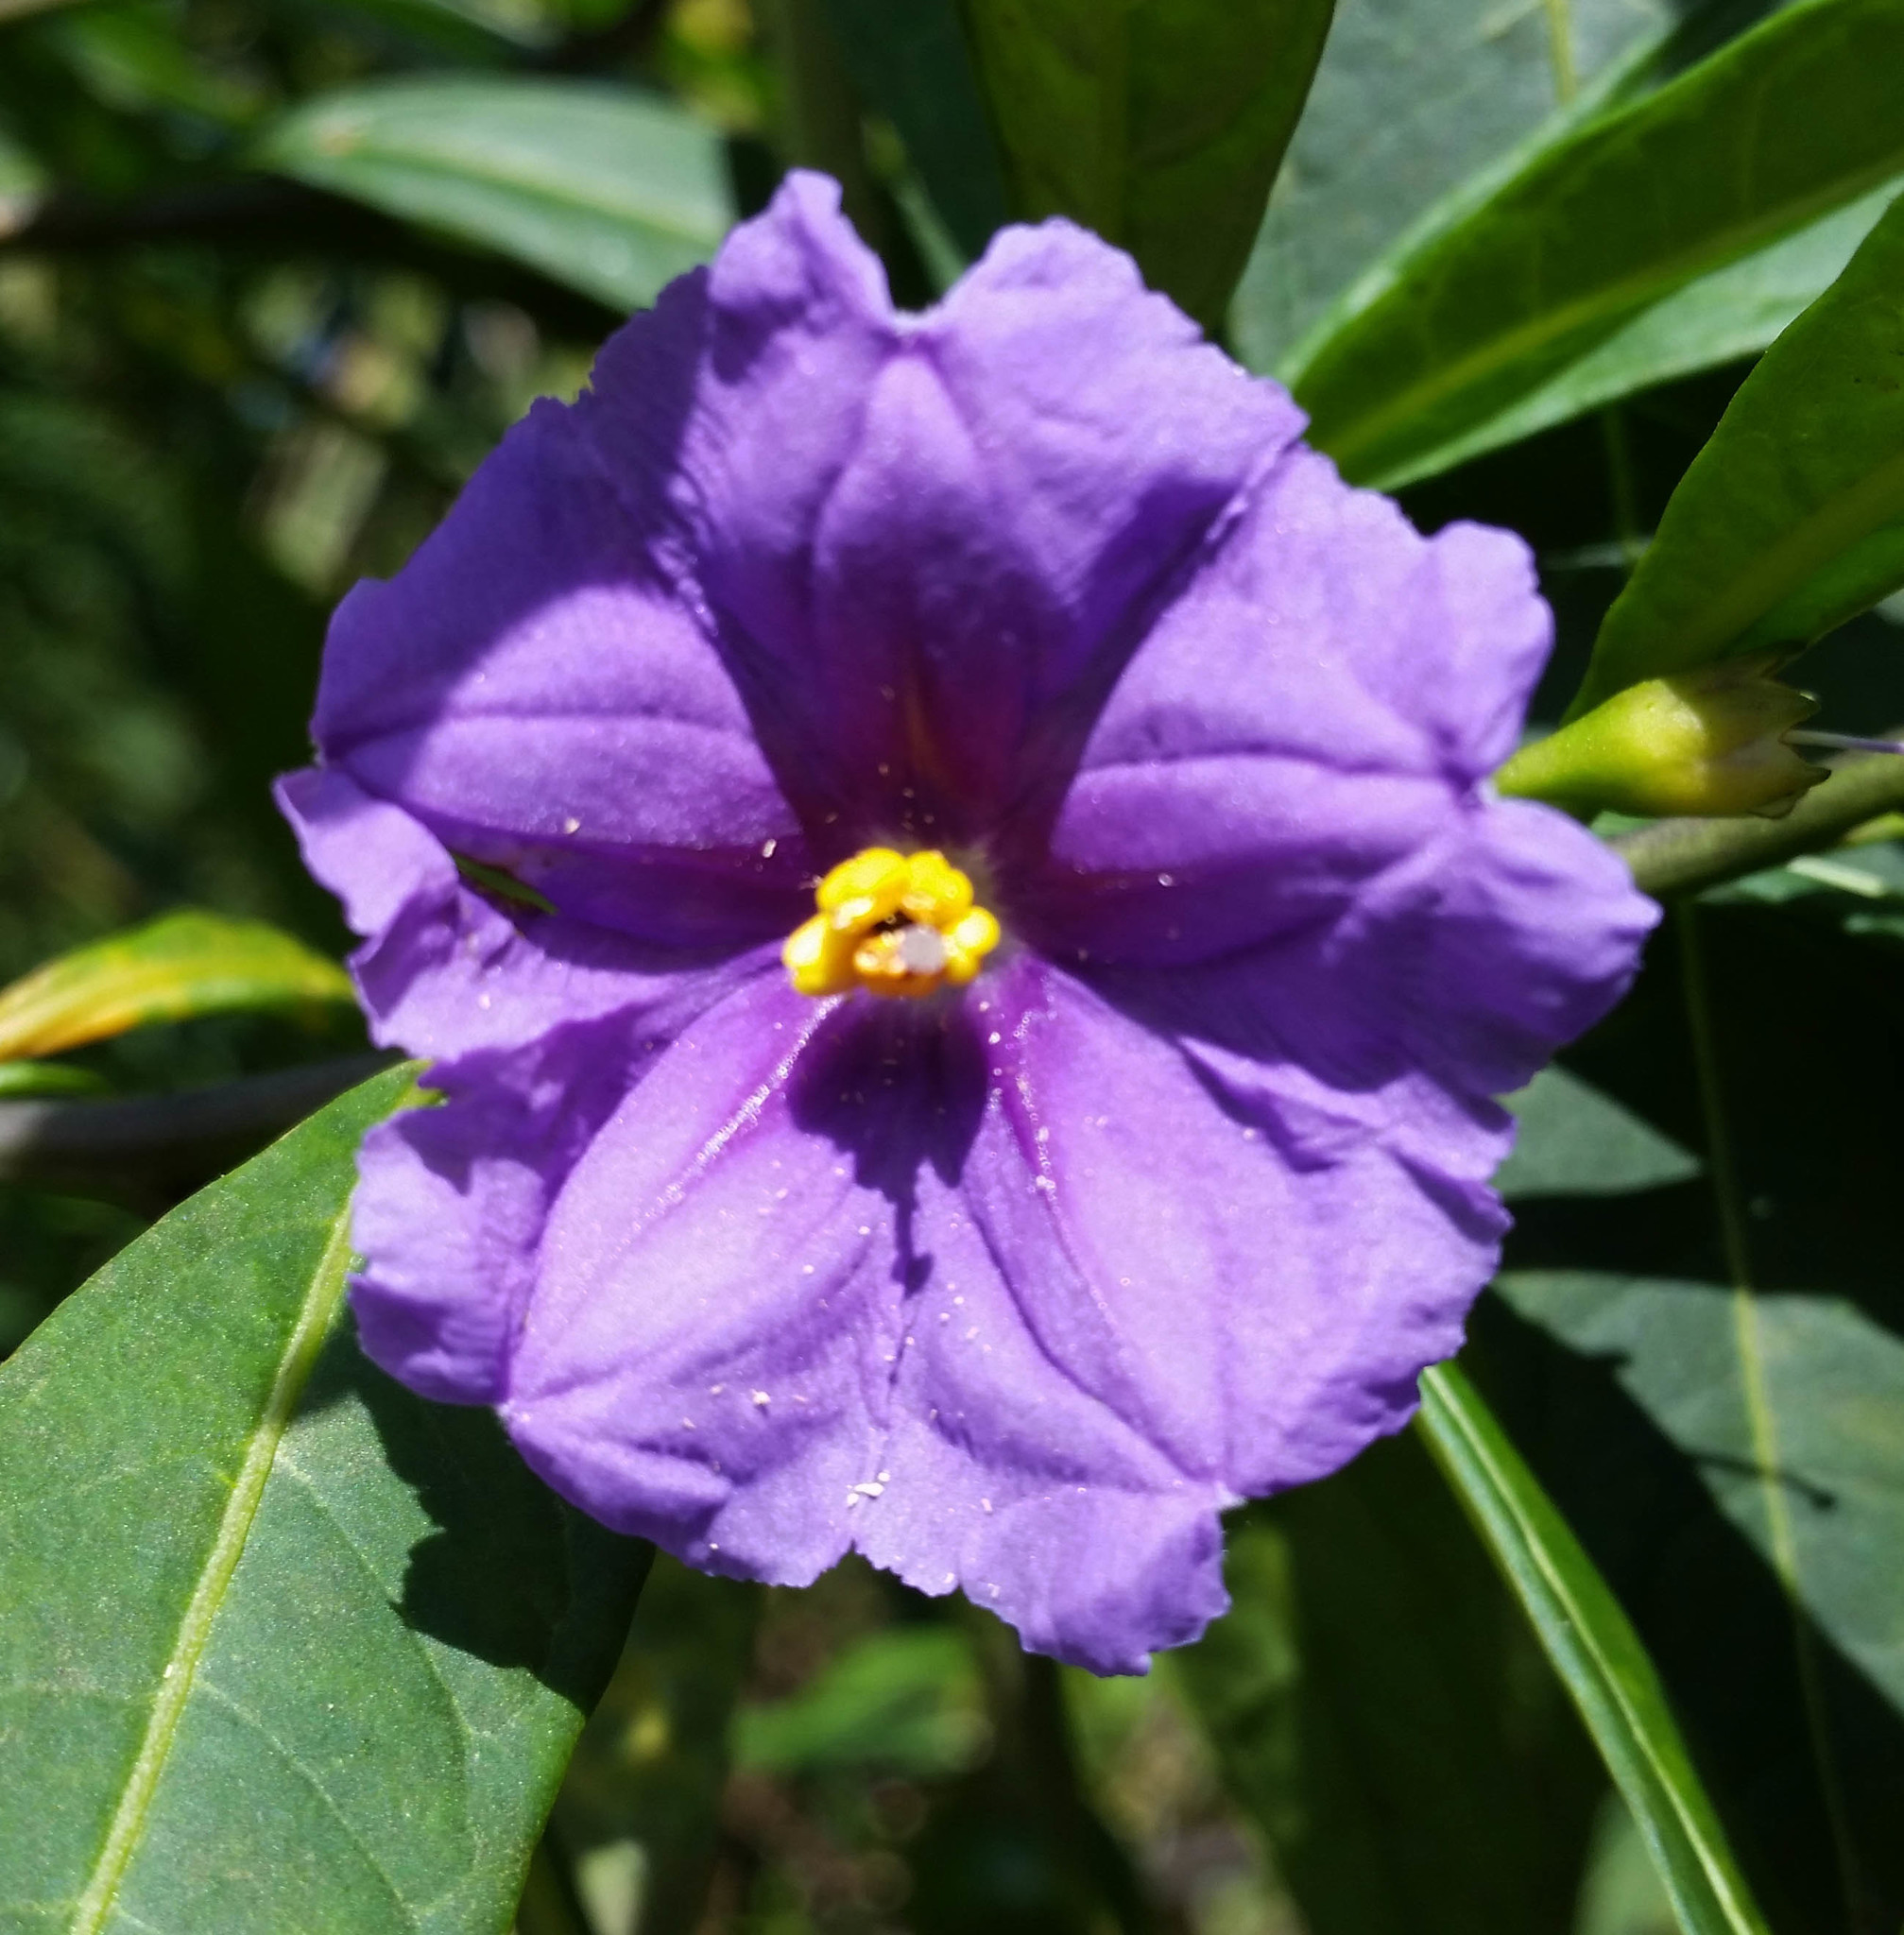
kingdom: Plantae
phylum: Tracheophyta
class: Magnoliopsida
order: Solanales
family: Solanaceae
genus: Solanum
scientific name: Solanum laciniatum
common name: Kangaroo-apple
